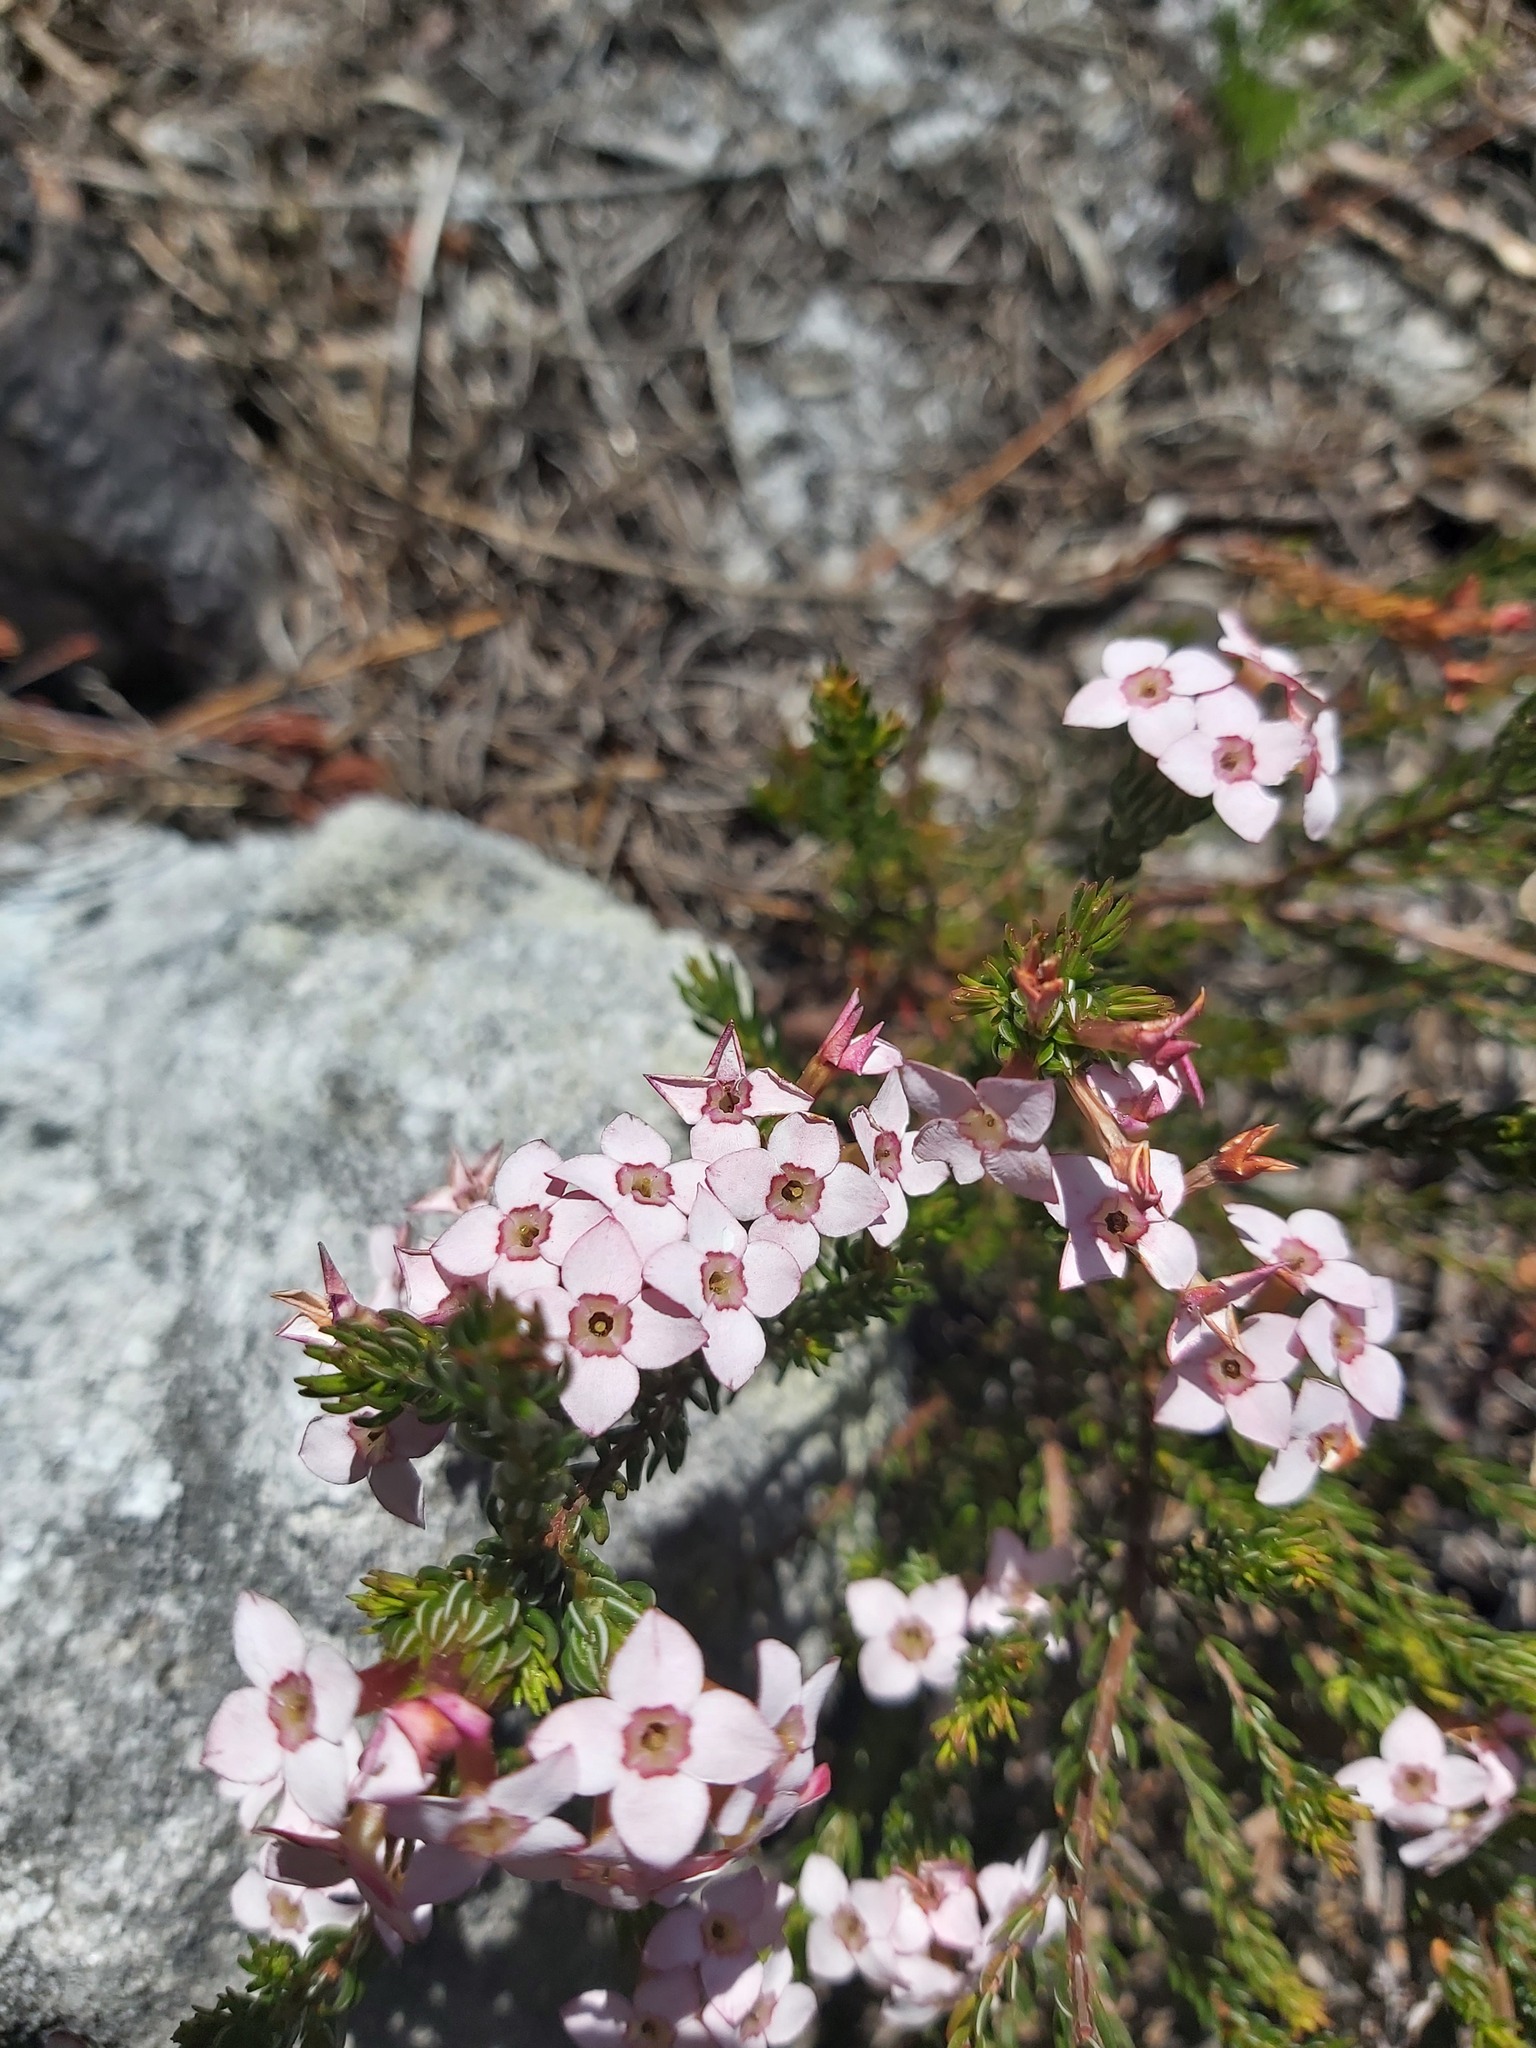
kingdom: Plantae
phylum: Tracheophyta
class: Magnoliopsida
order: Ericales
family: Ericaceae
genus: Erica
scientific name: Erica fastigiata
